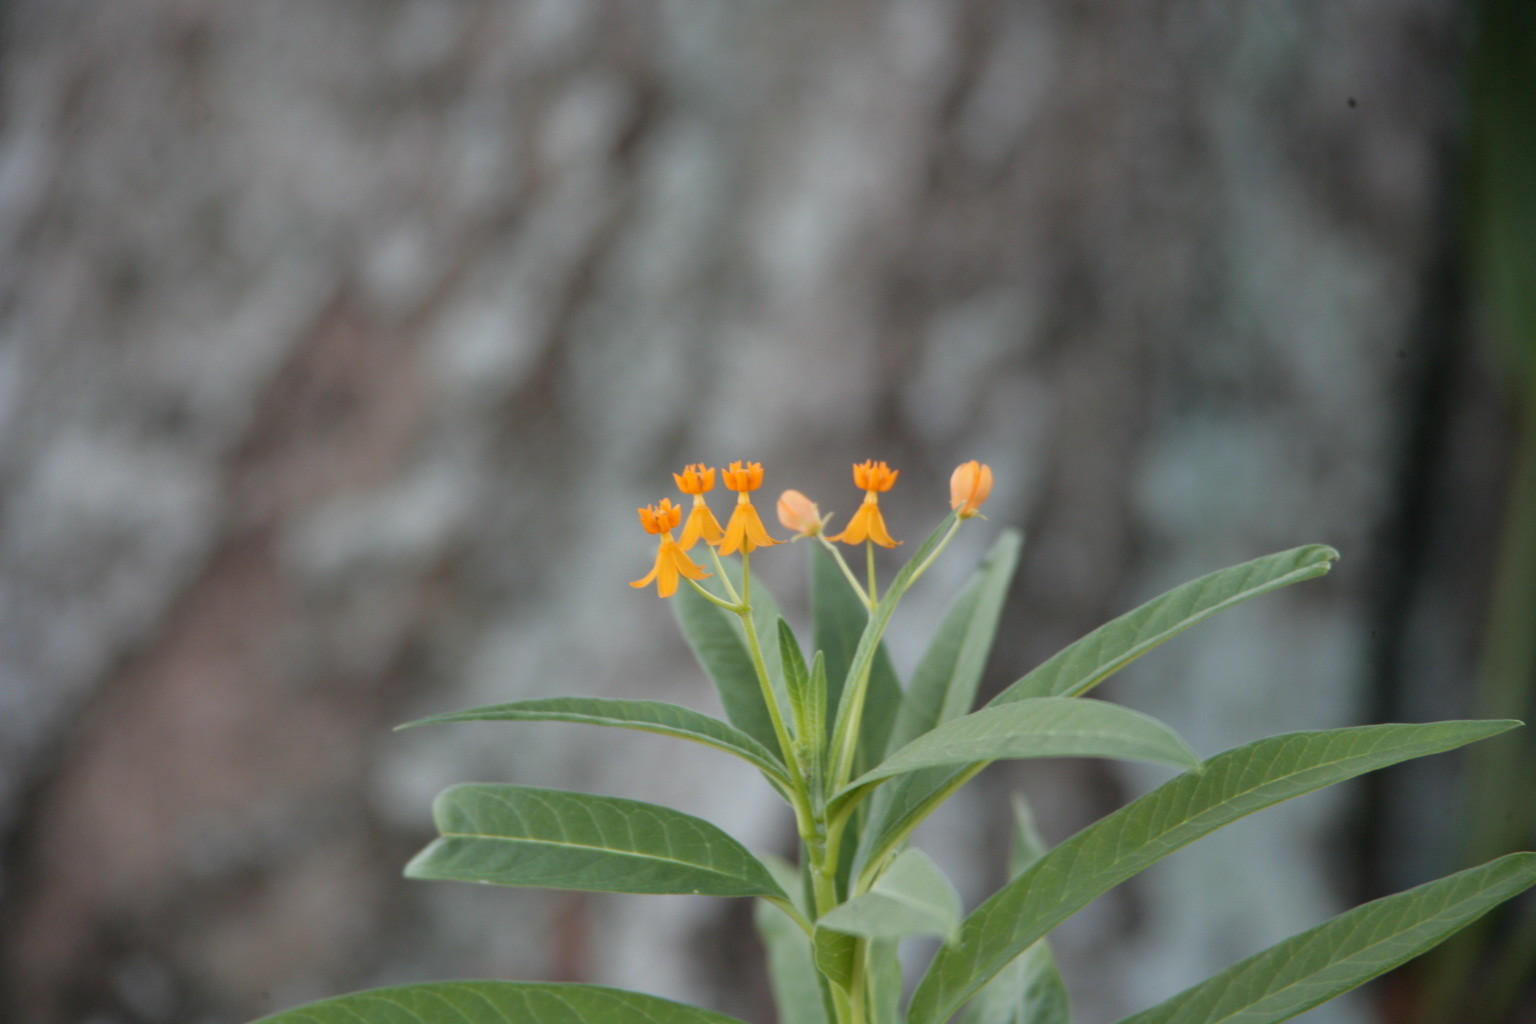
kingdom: Plantae
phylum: Tracheophyta
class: Magnoliopsida
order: Gentianales
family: Apocynaceae
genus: Asclepias
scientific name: Asclepias curassavica
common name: Bloodflower
